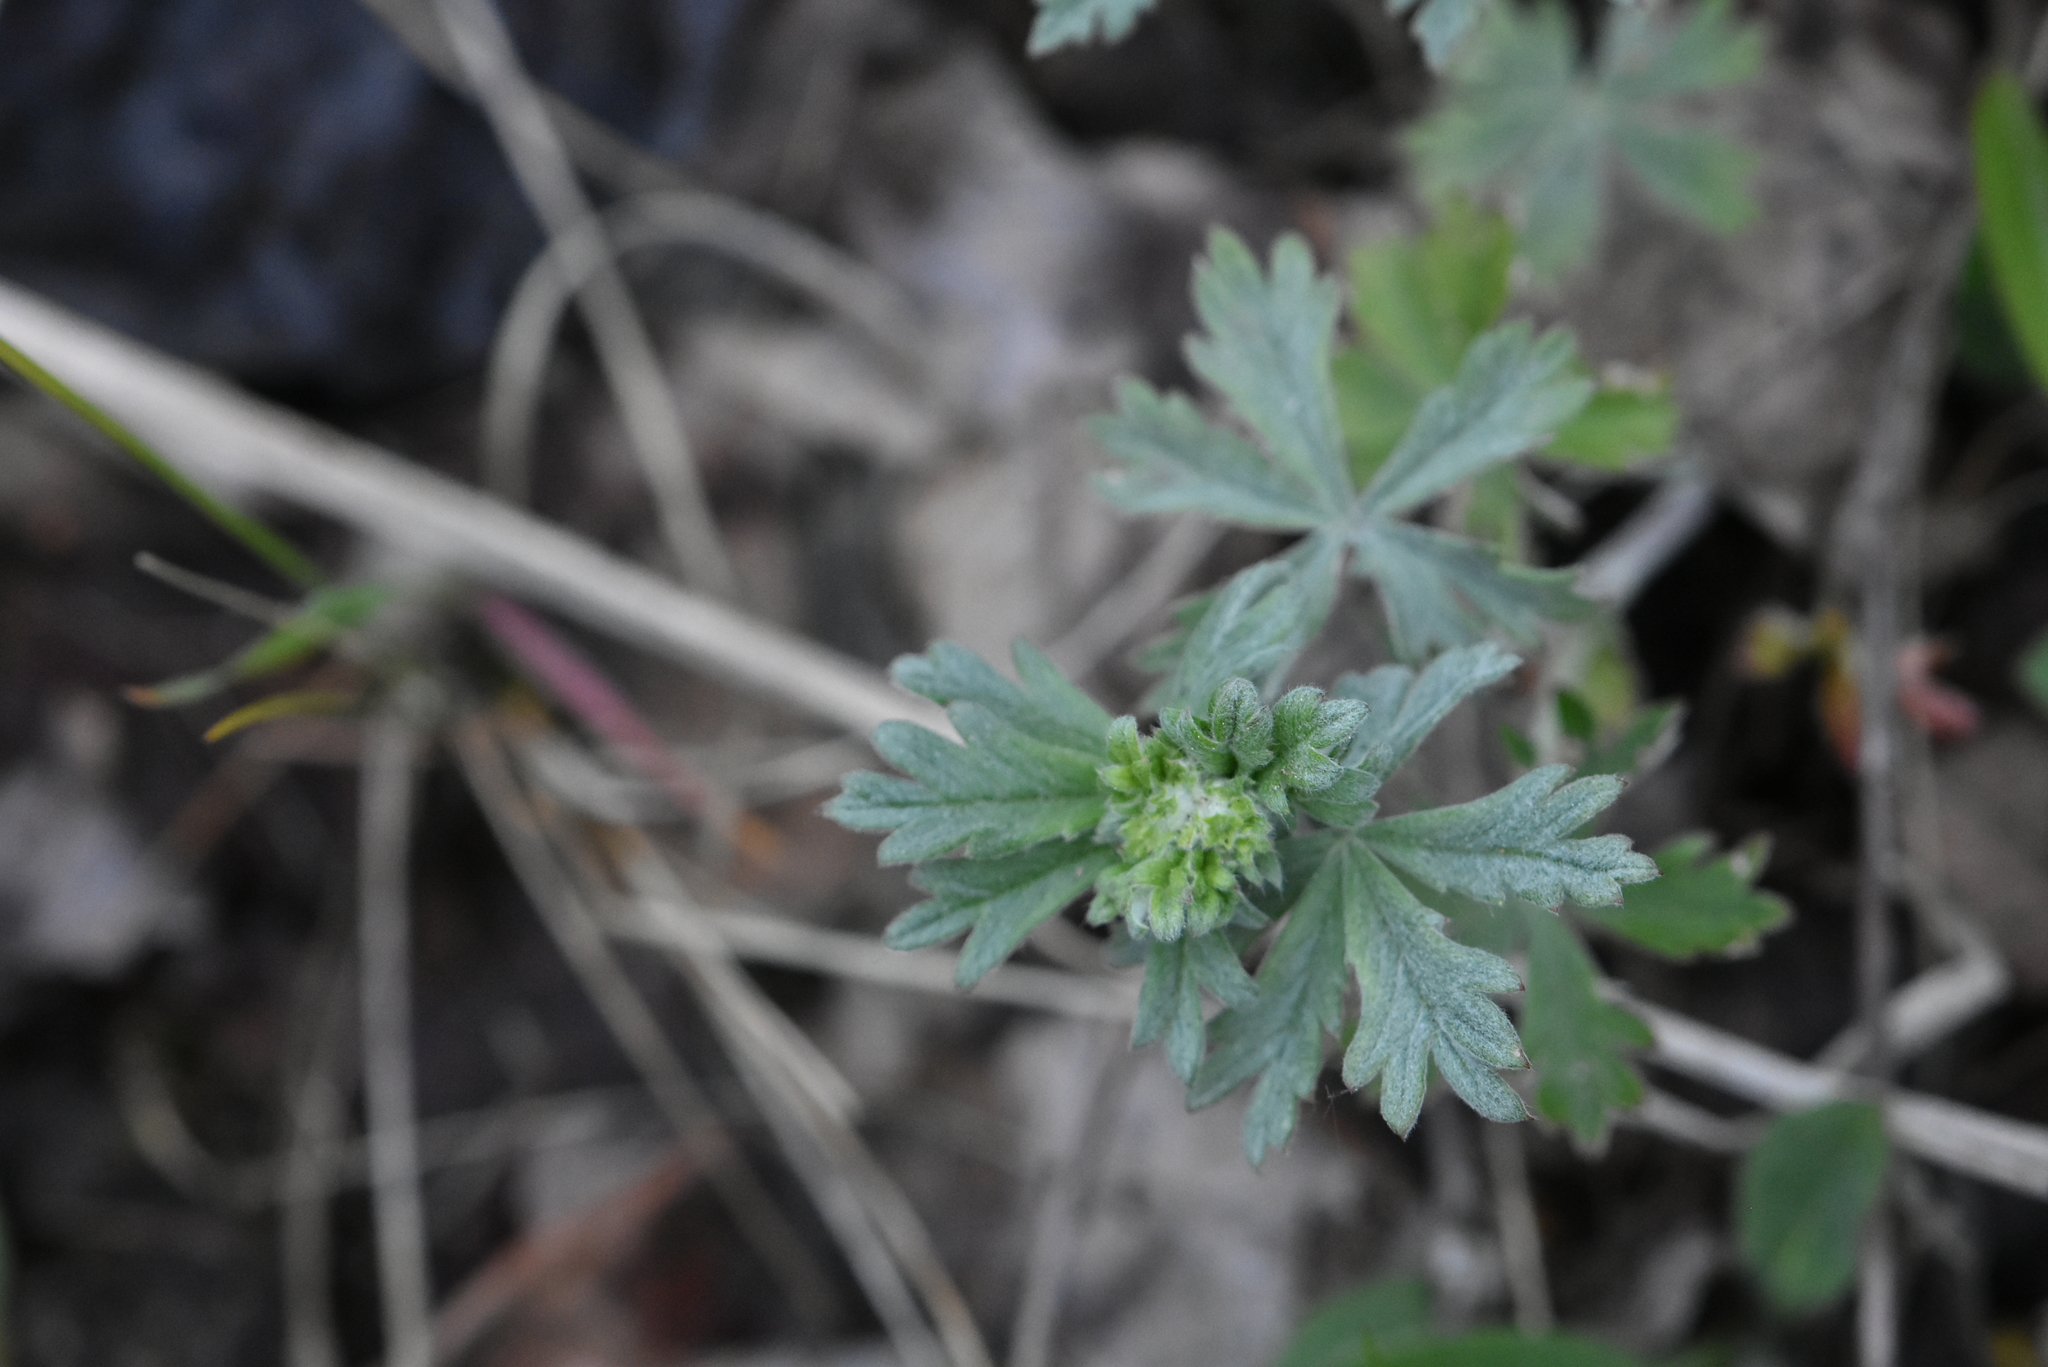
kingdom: Plantae
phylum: Tracheophyta
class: Magnoliopsida
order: Rosales
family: Rosaceae
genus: Potentilla
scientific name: Potentilla argentea
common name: Hoary cinquefoil
